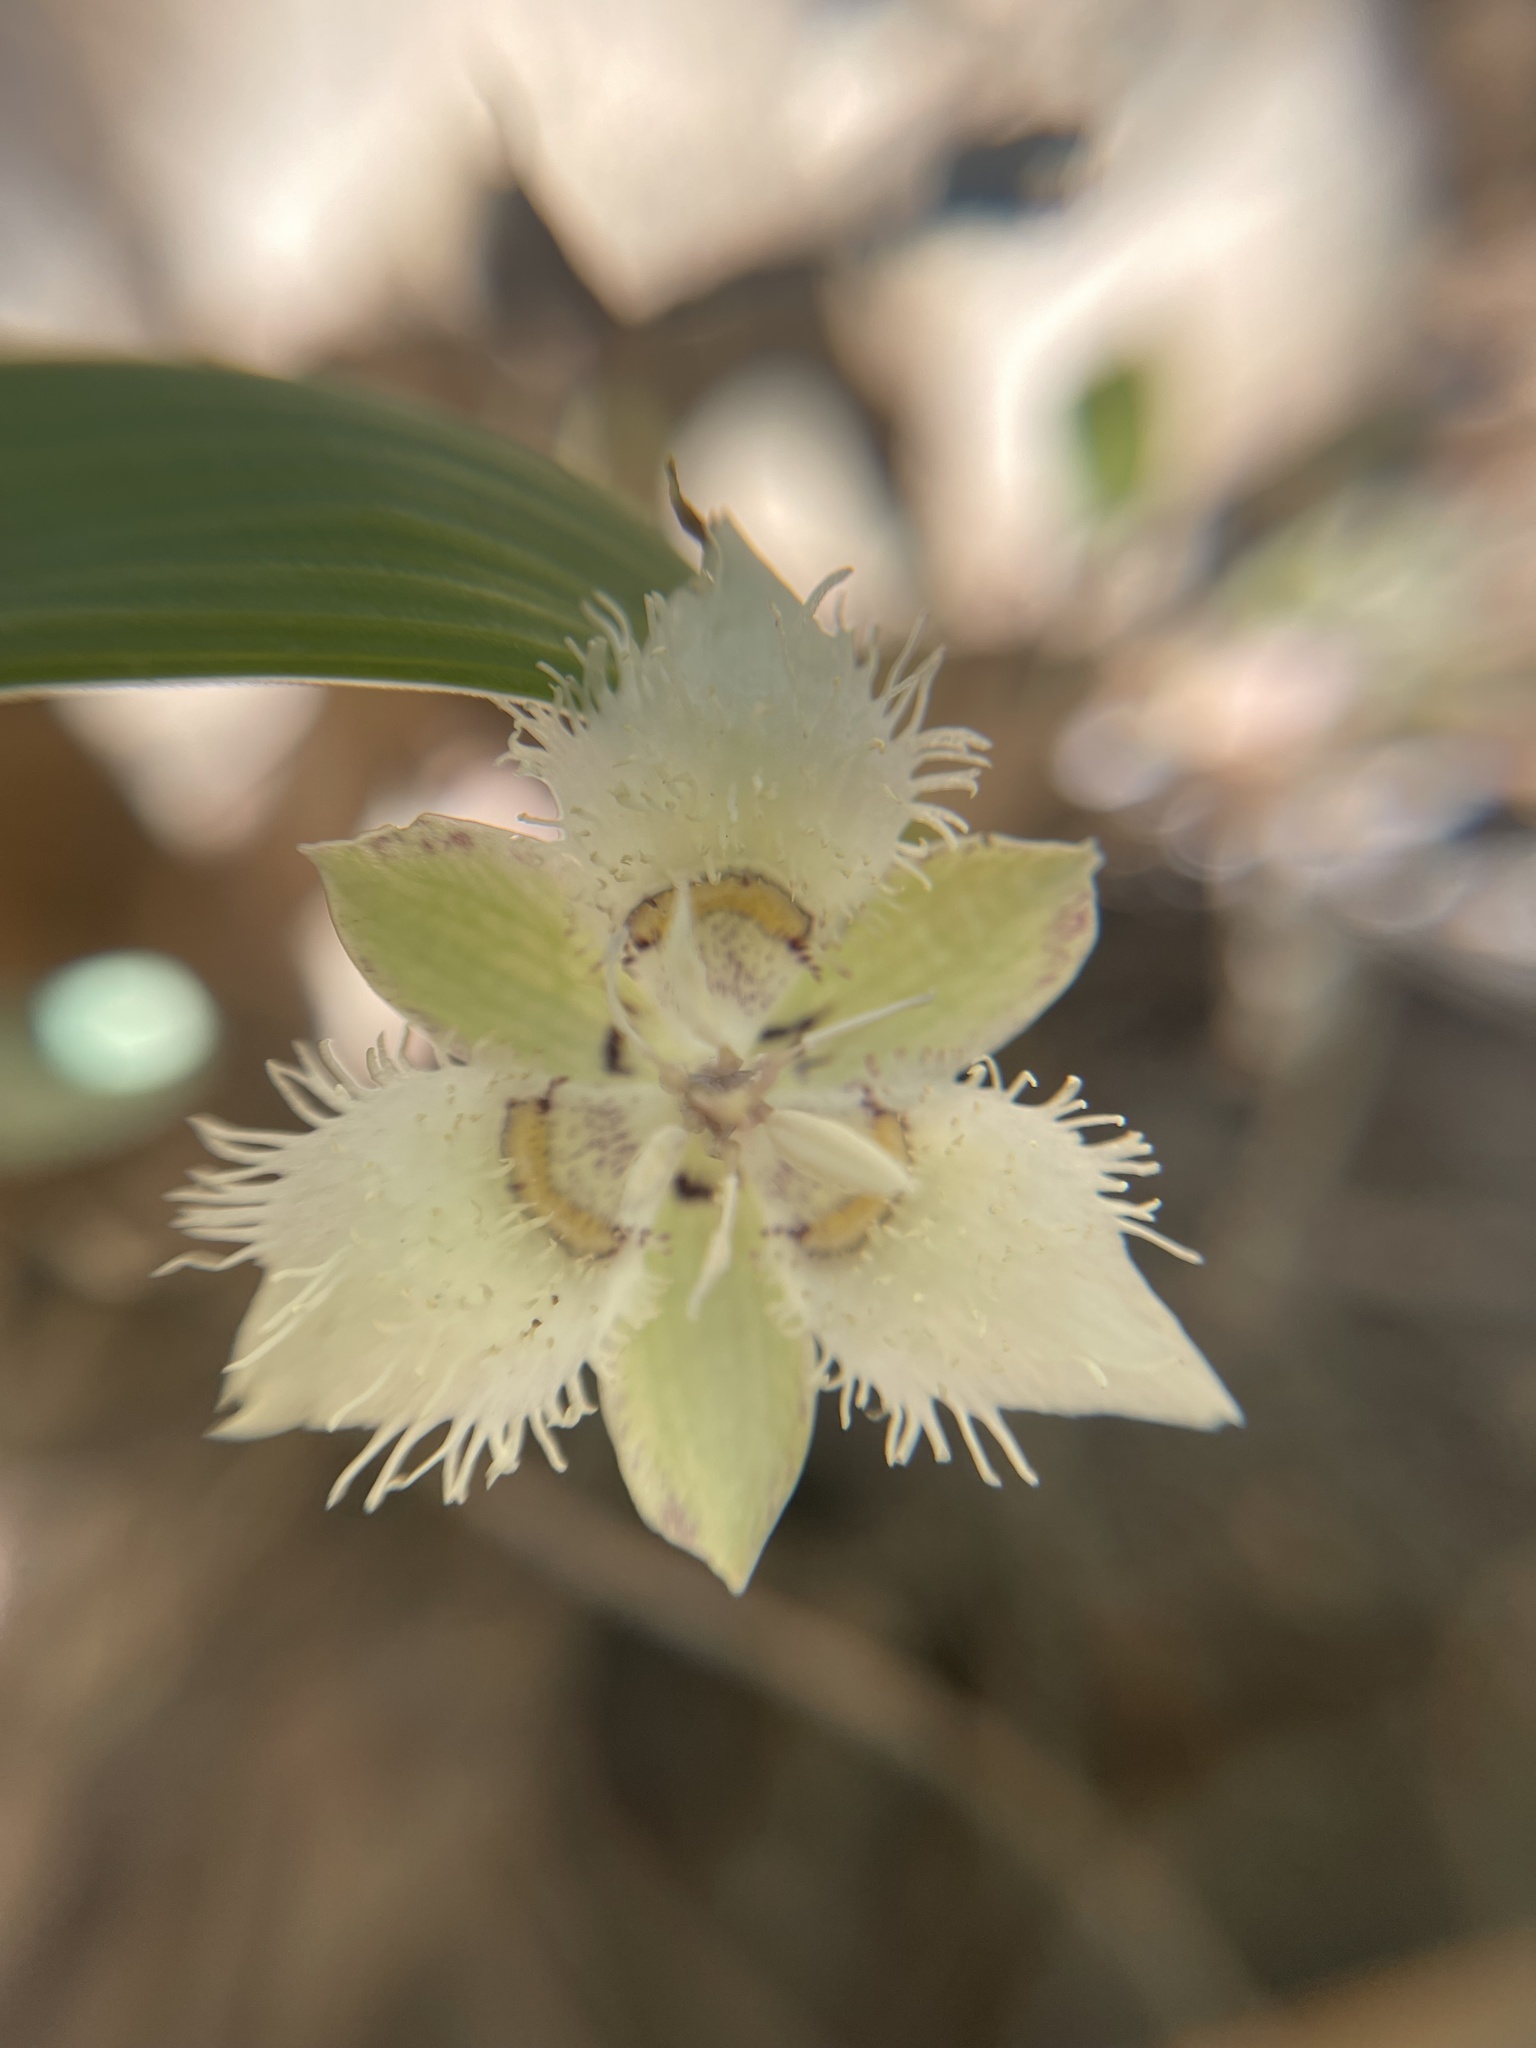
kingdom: Plantae
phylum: Tracheophyta
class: Liliopsida
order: Liliales
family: Liliaceae
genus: Calochortus
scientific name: Calochortus westonii
